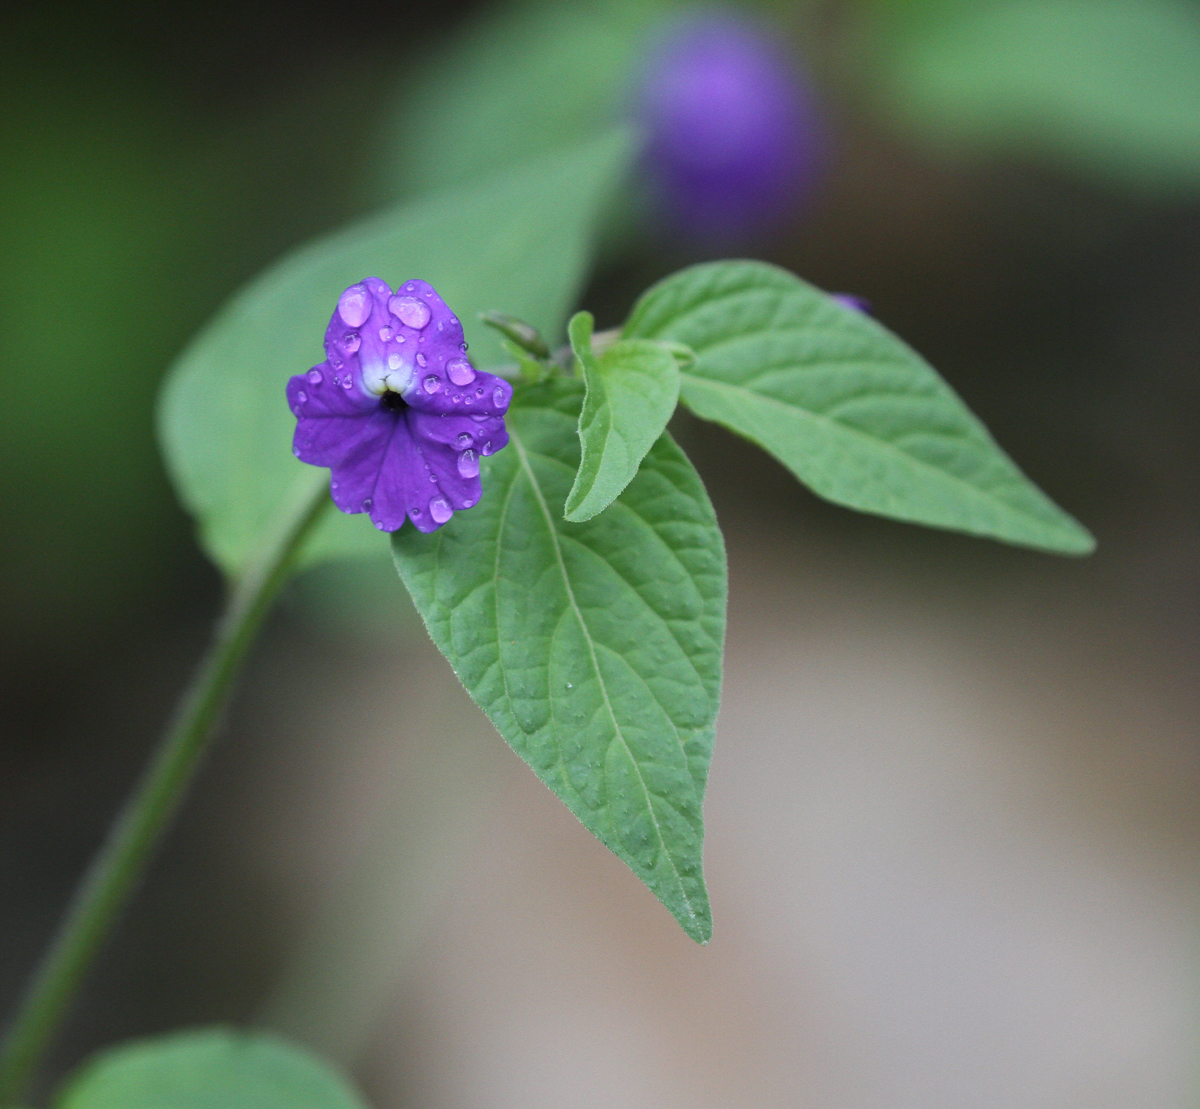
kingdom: Plantae
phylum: Tracheophyta
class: Magnoliopsida
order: Solanales
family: Solanaceae
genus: Browallia
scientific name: Browallia americana
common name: Jamaican forget-me-not
